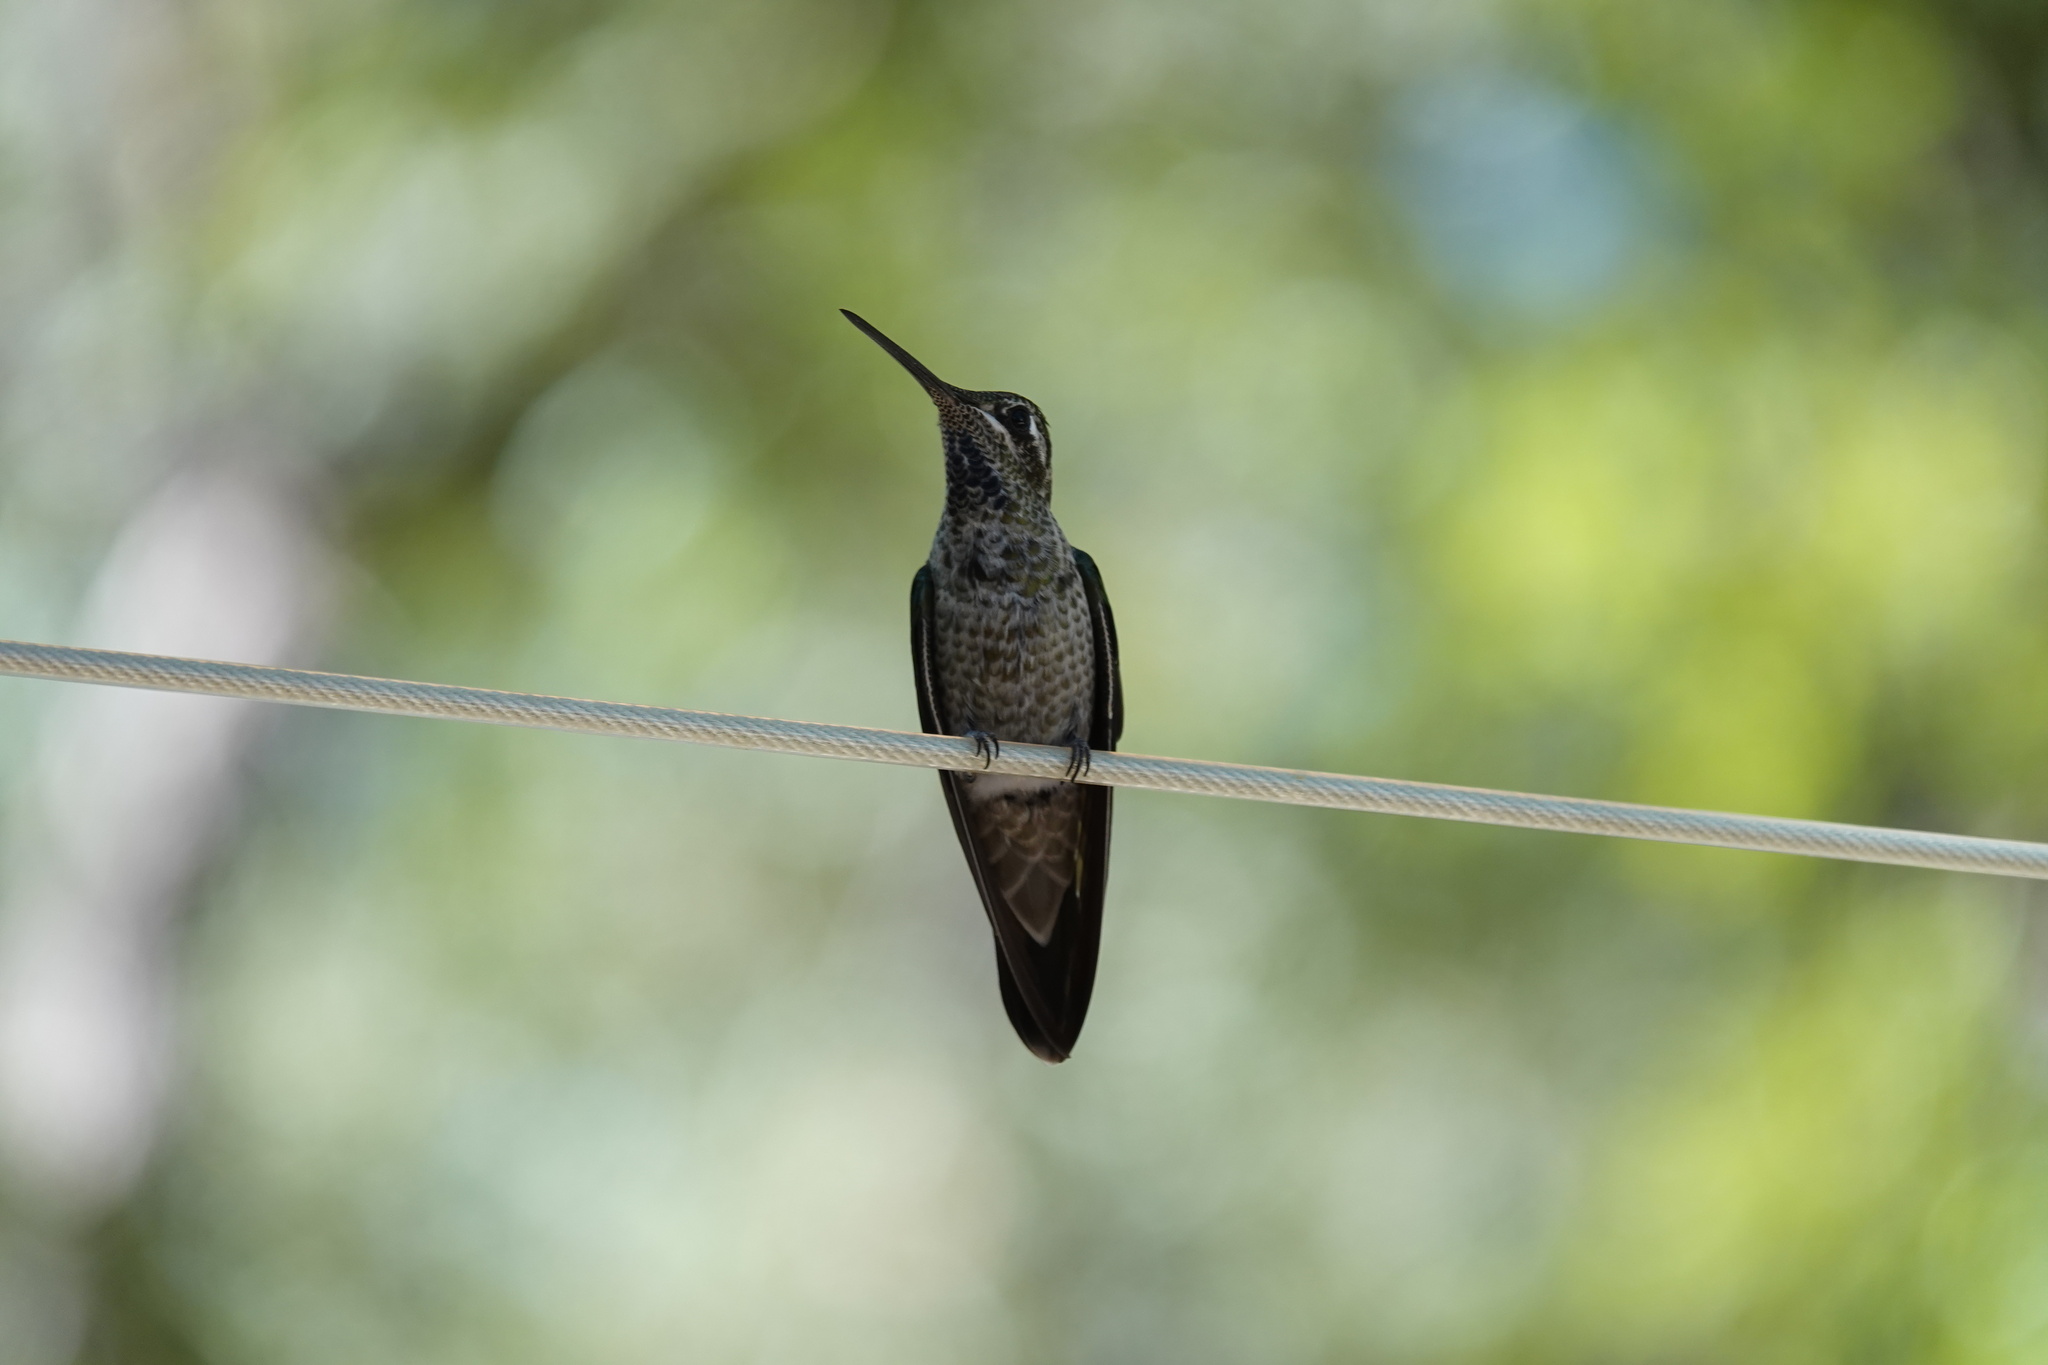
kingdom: Animalia
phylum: Chordata
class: Aves
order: Apodiformes
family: Trochilidae
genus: Eugenes
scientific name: Eugenes fulgens
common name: Magnificent hummingbird
